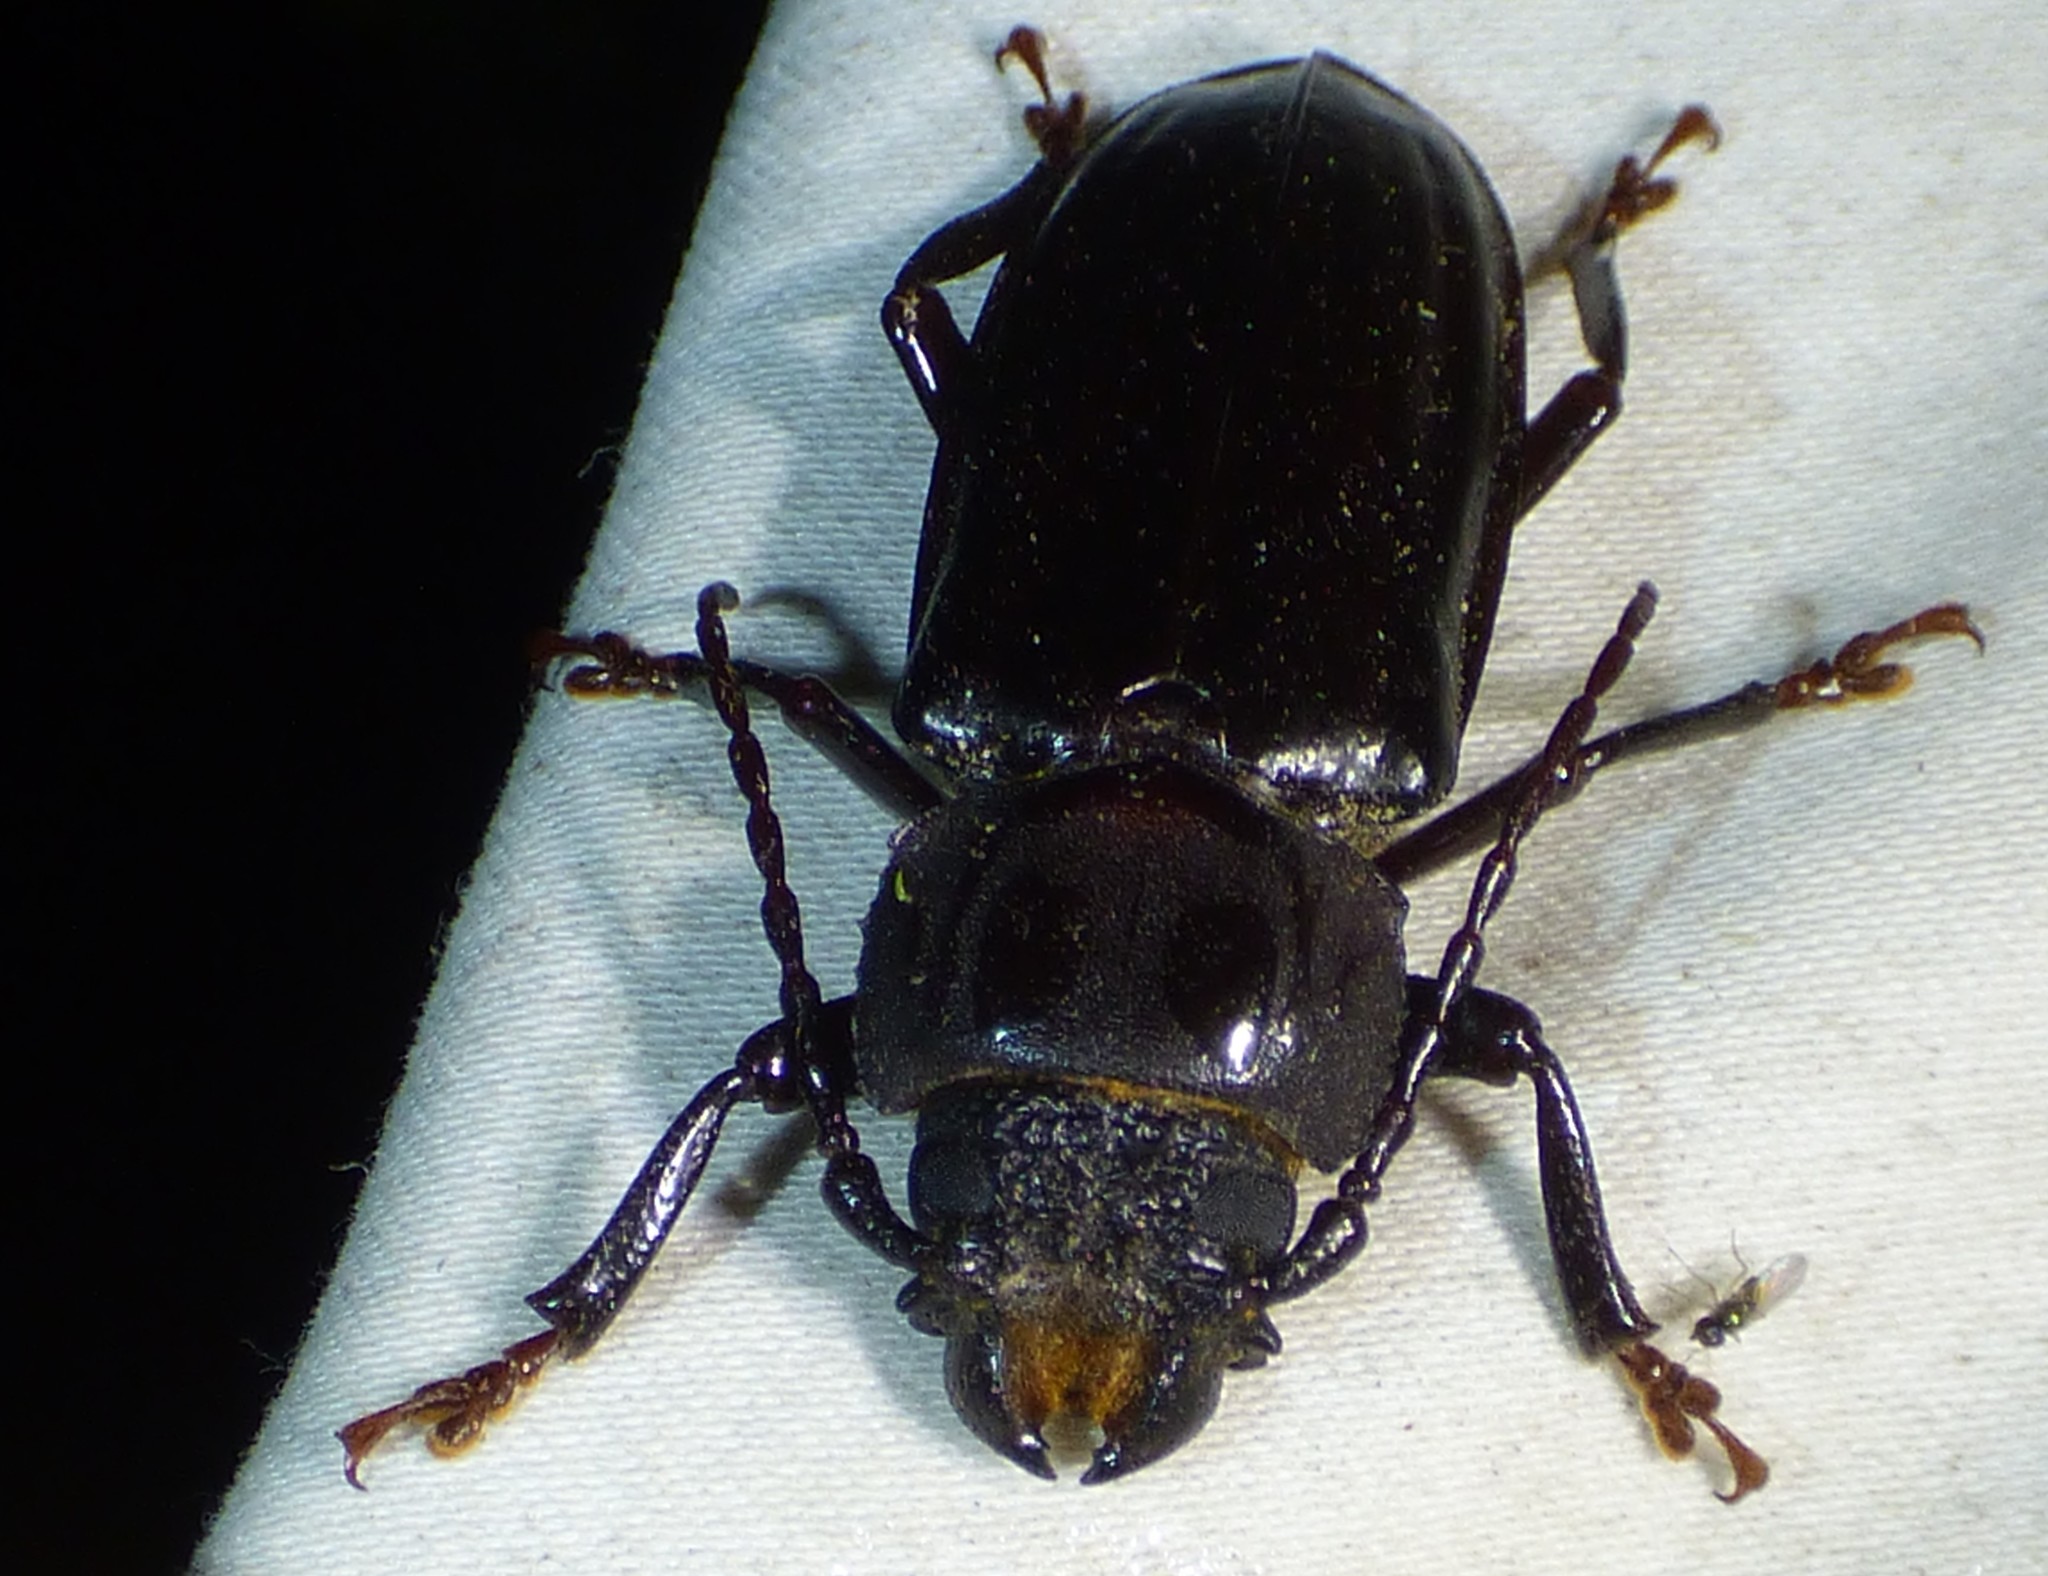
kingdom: Animalia
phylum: Arthropoda
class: Insecta
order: Coleoptera
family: Cerambycidae
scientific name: Cerambycidae
